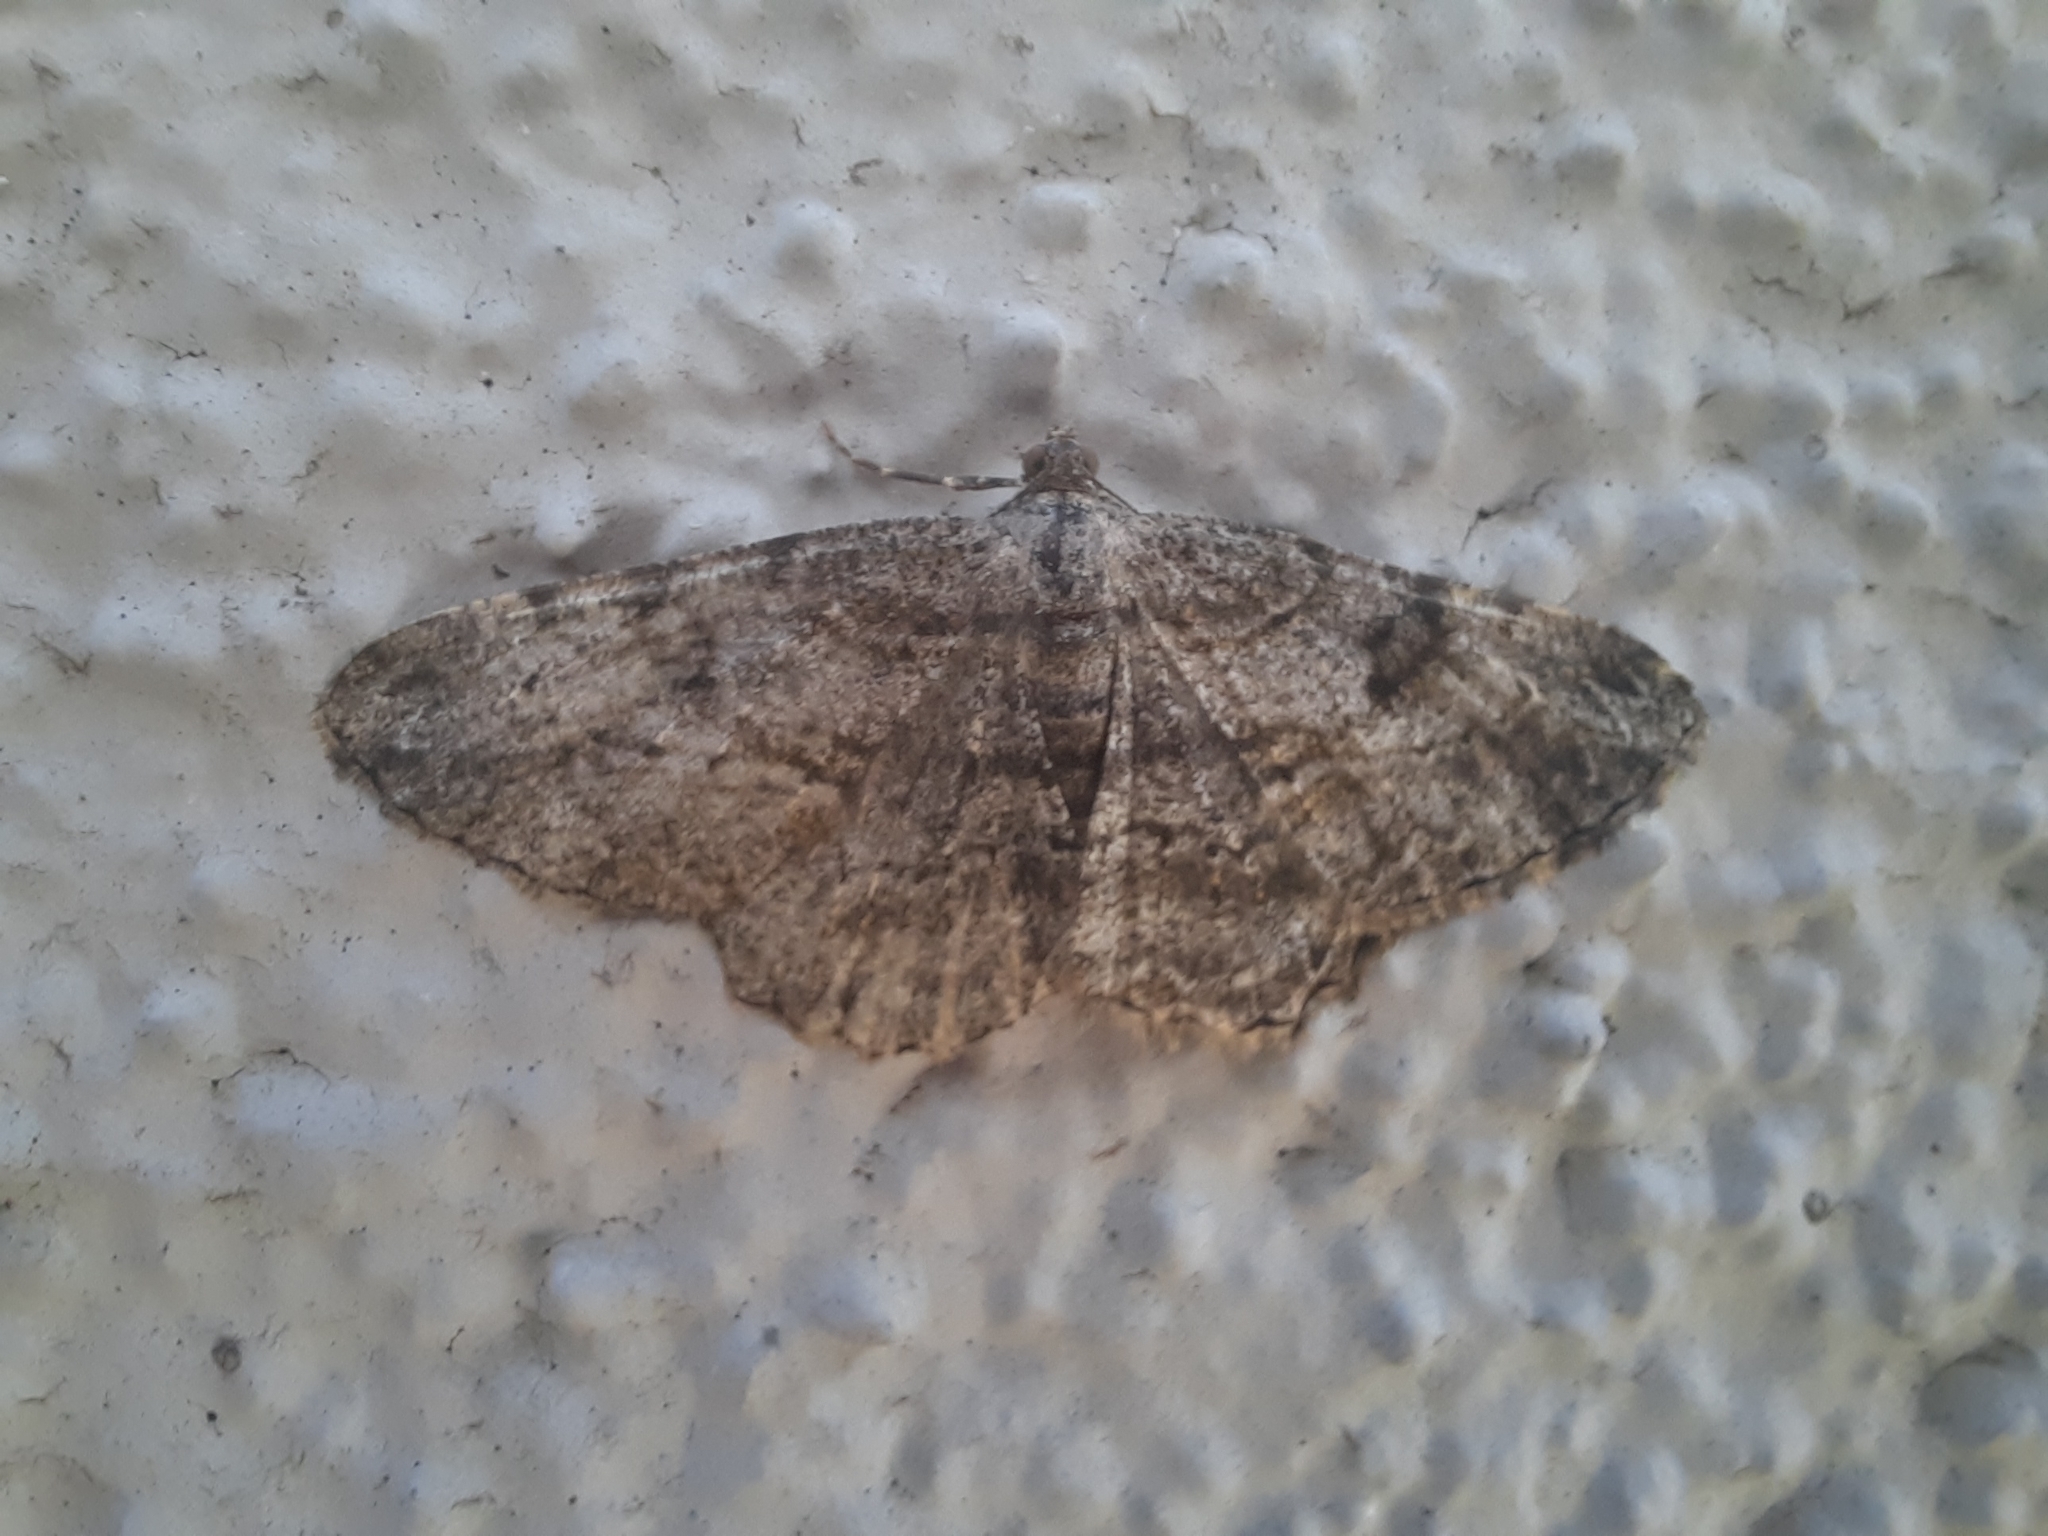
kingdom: Animalia
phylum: Arthropoda
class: Insecta
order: Lepidoptera
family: Geometridae
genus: Peribatodes
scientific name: Peribatodes rhomboidaria
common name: Willow beauty
